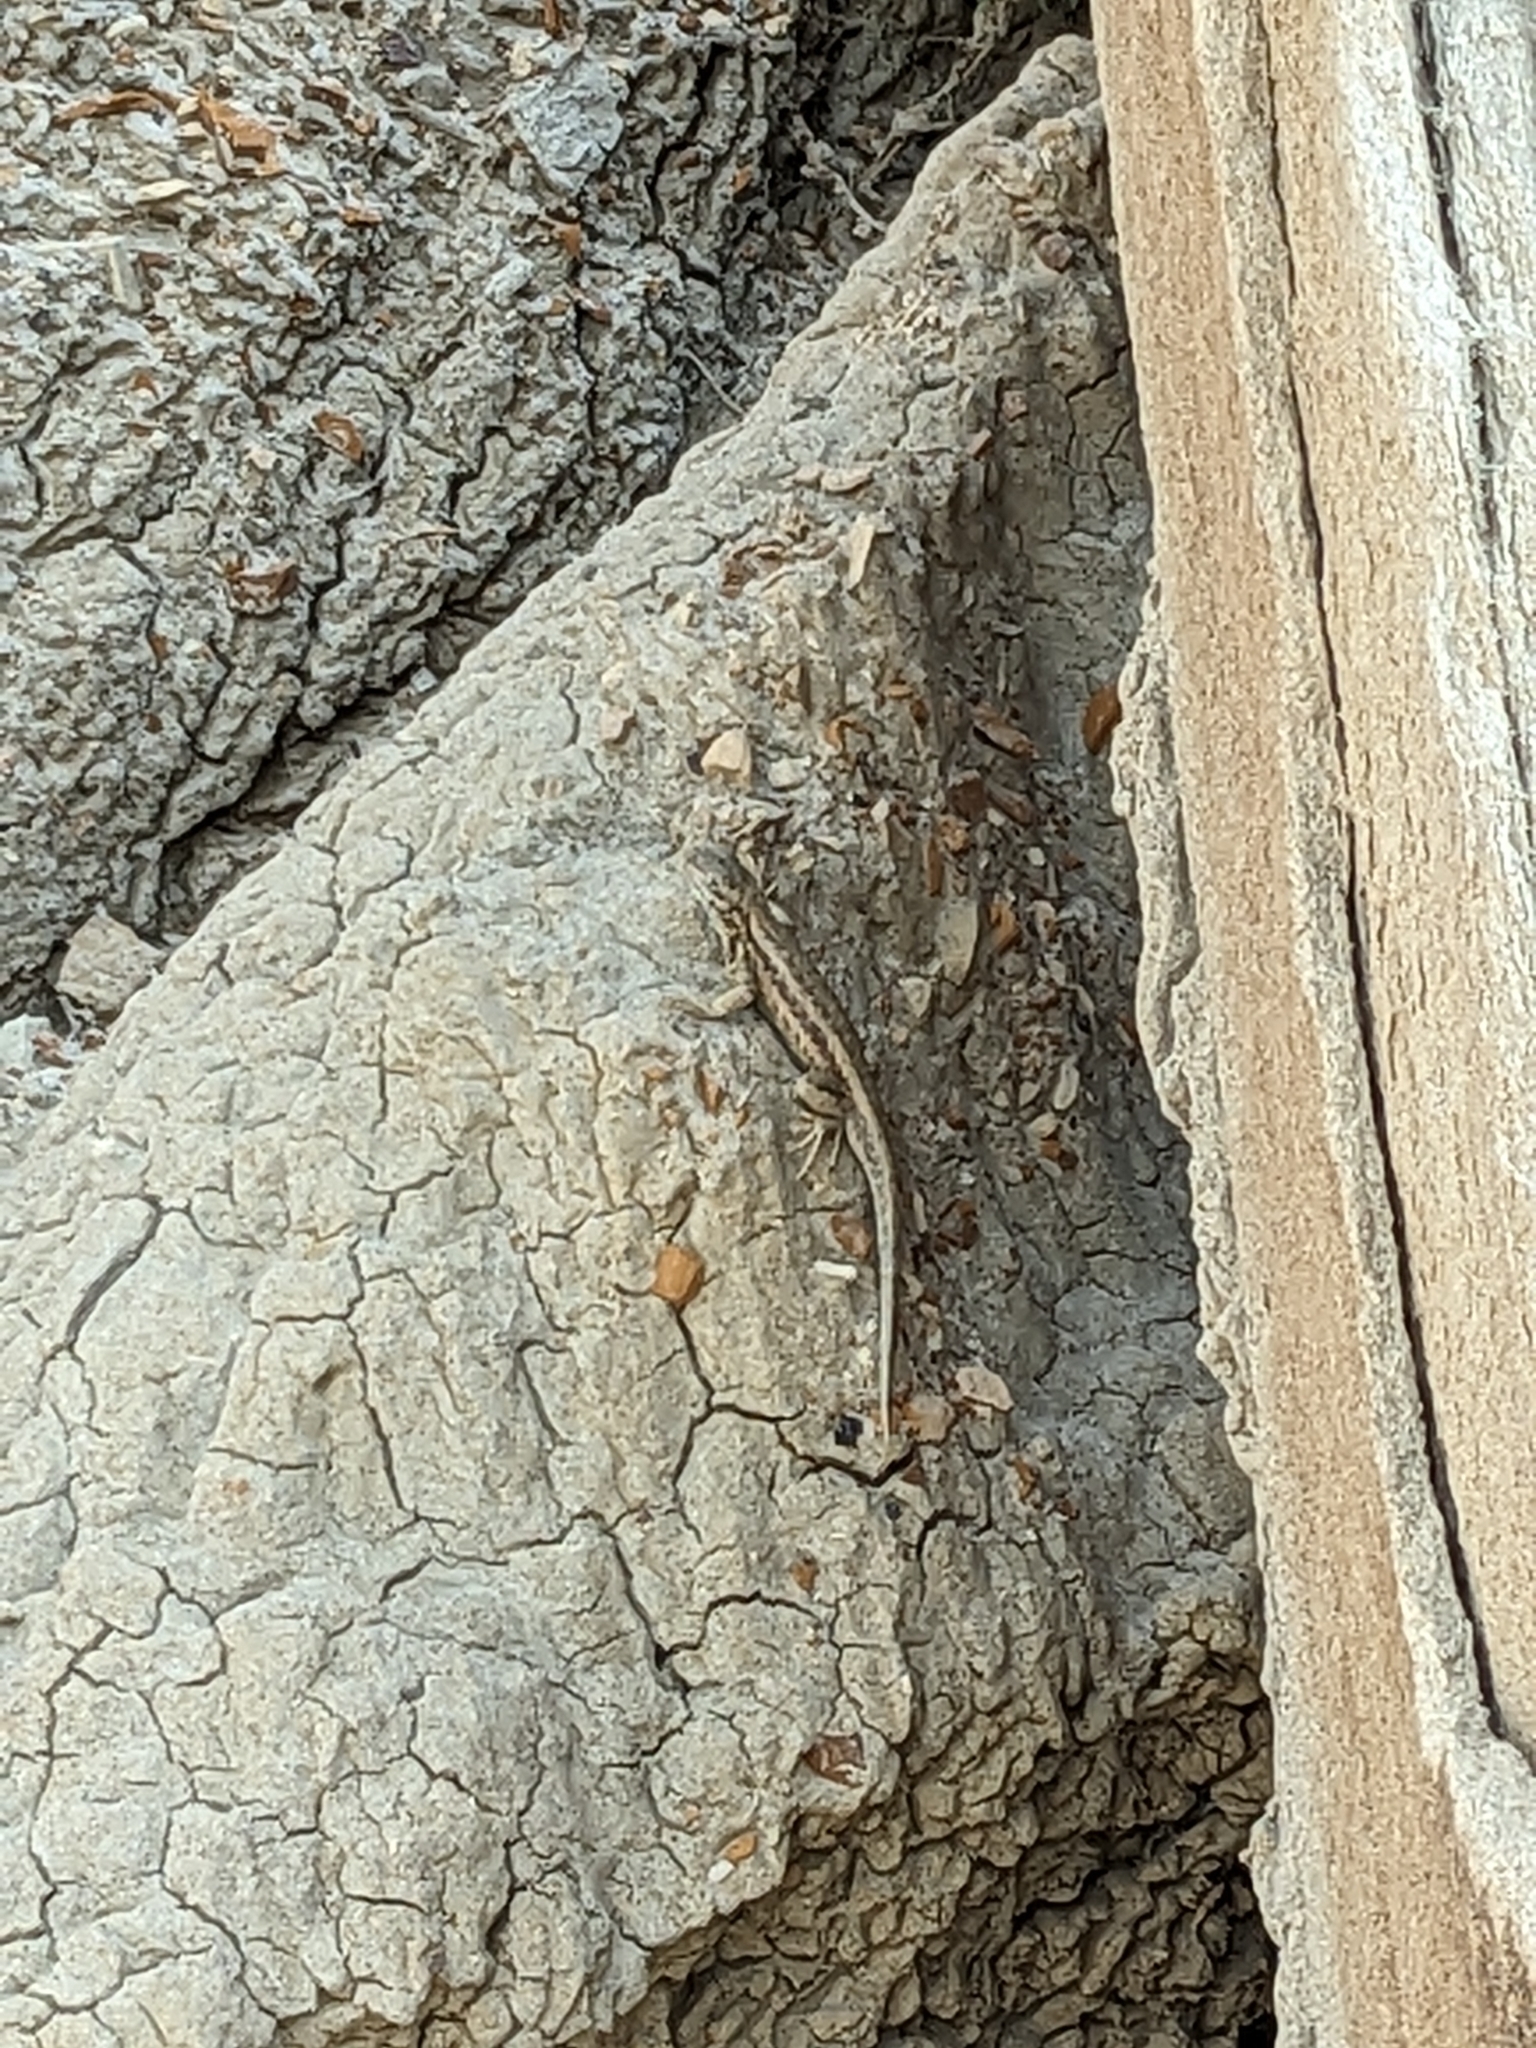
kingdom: Animalia
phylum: Chordata
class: Squamata
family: Phrynosomatidae
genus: Sceloporus
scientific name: Sceloporus graciosus
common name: Sagebrush lizard
